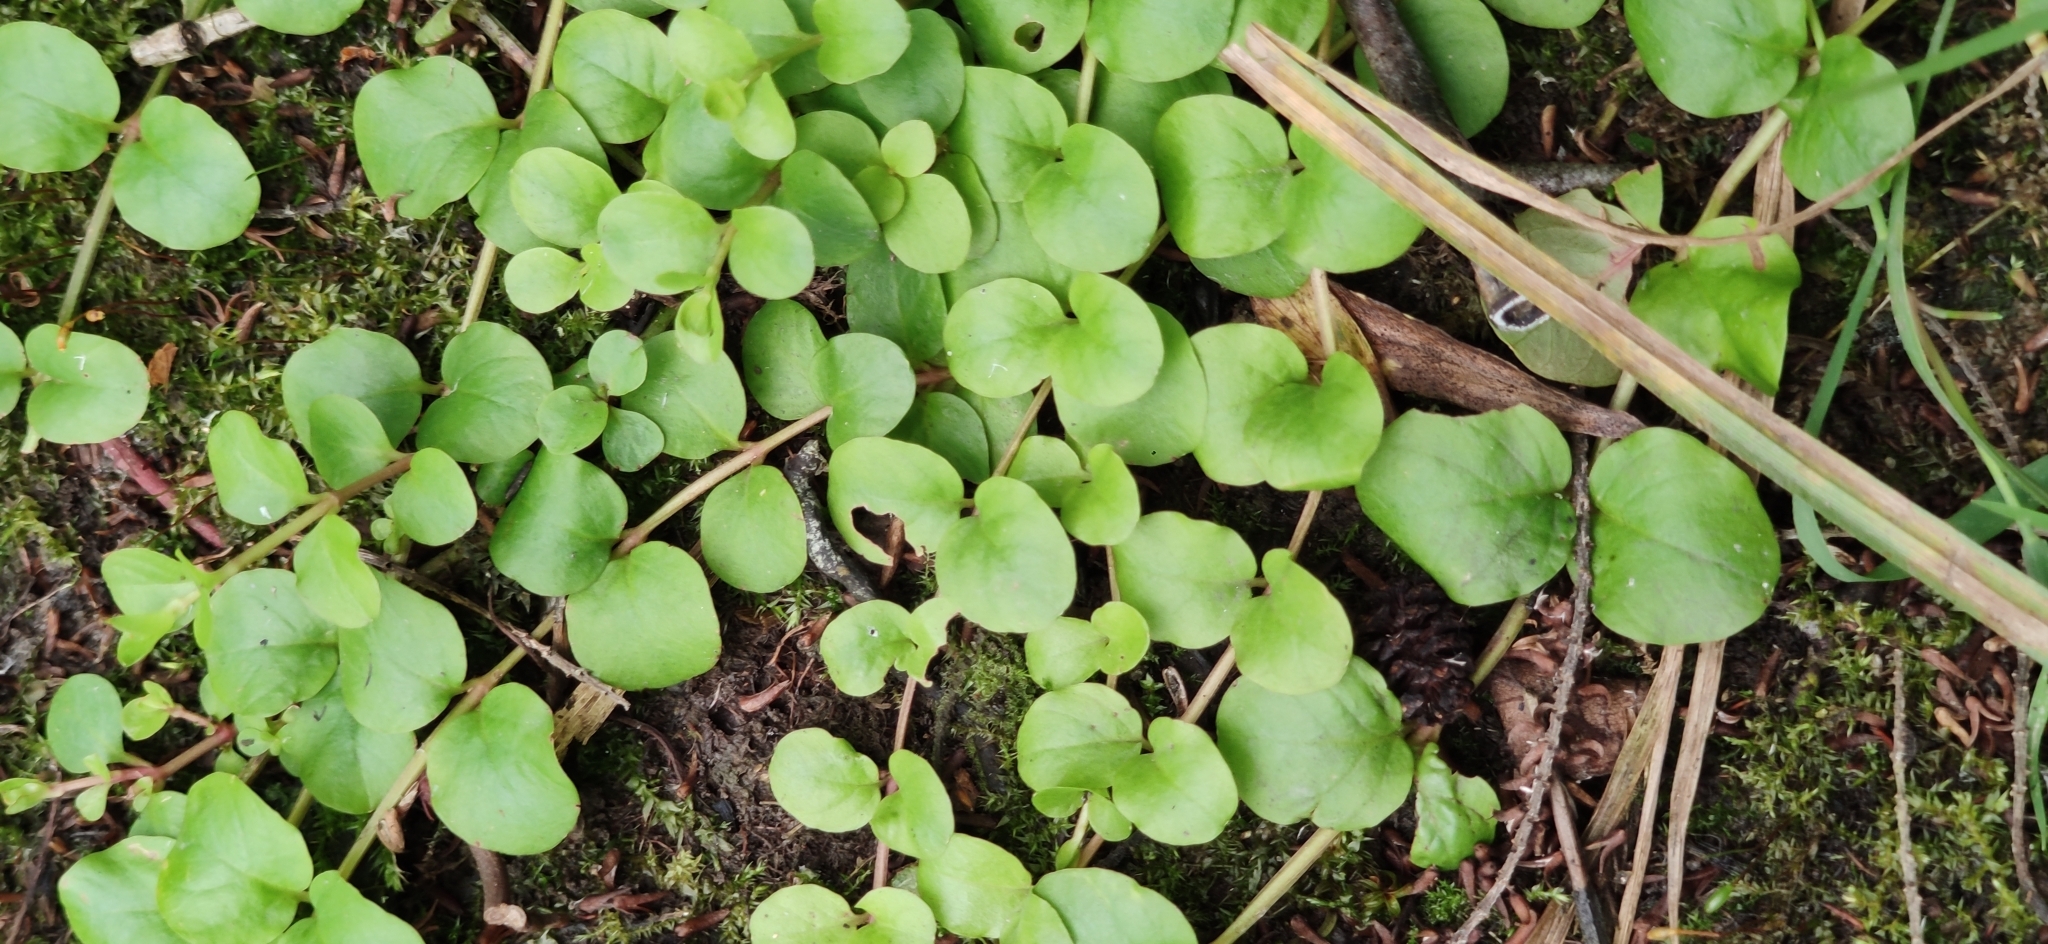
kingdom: Plantae
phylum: Tracheophyta
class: Magnoliopsida
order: Ericales
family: Primulaceae
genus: Lysimachia
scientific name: Lysimachia nummularia
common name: Moneywort
